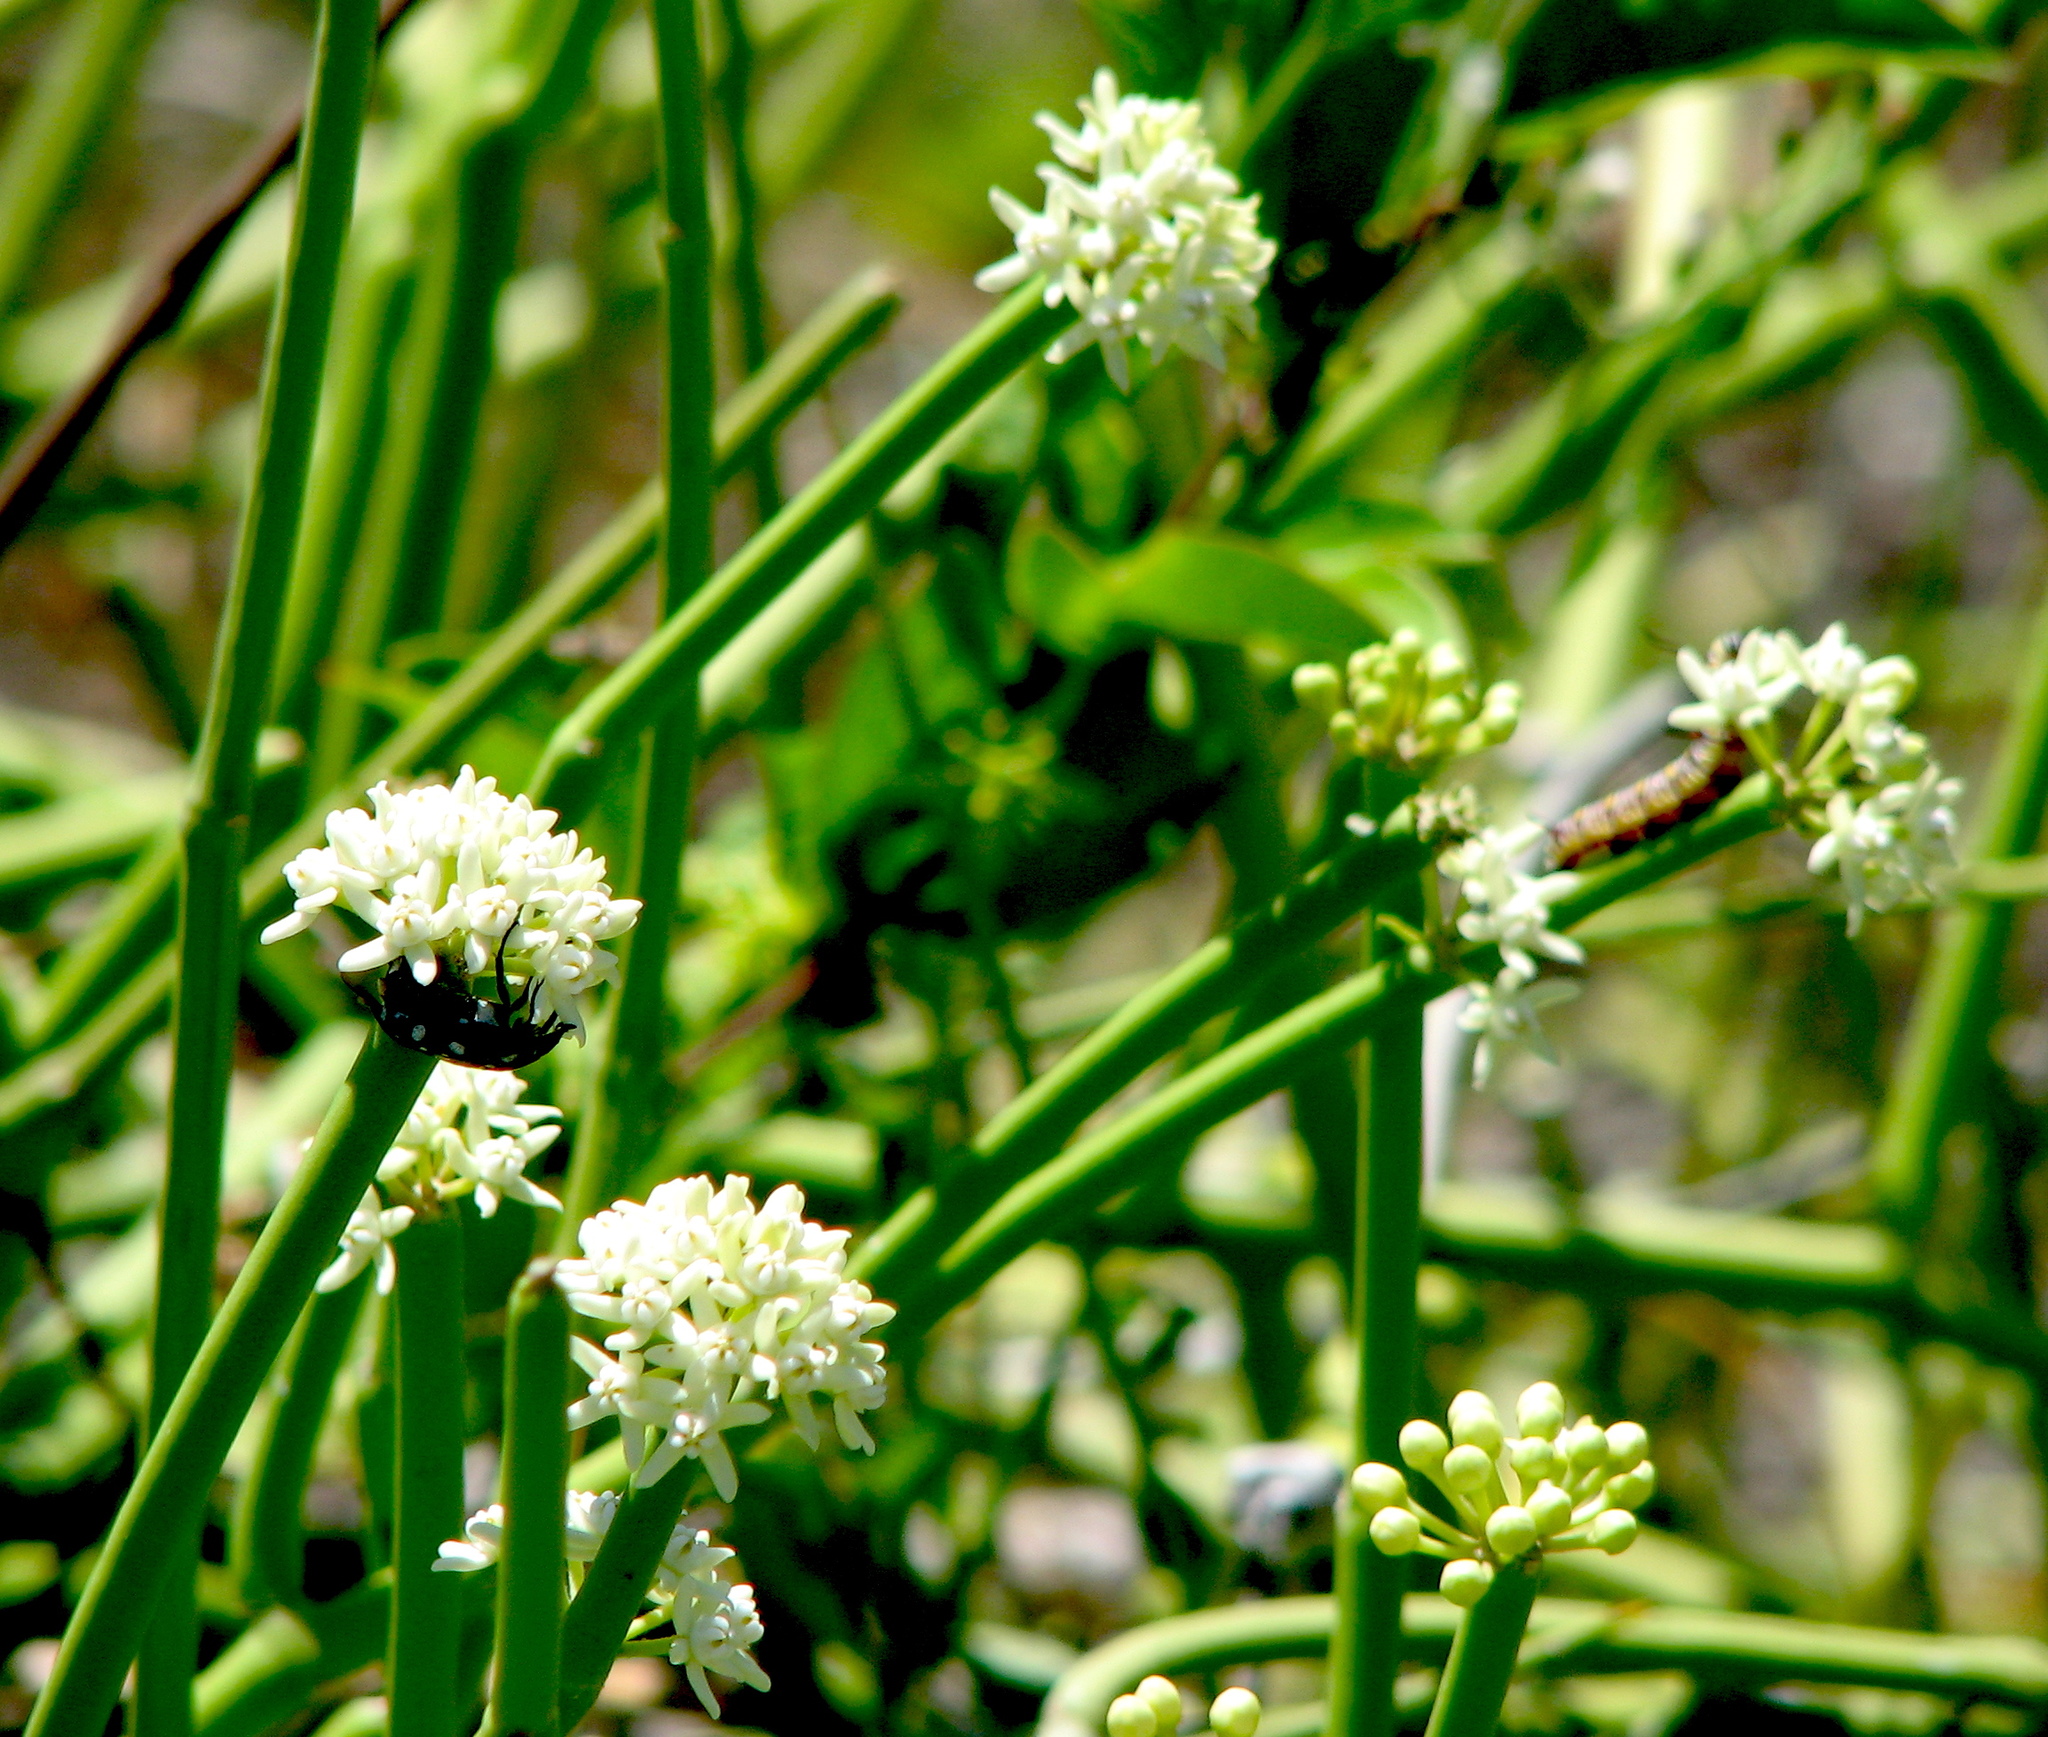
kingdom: Plantae
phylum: Tracheophyta
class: Magnoliopsida
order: Gentianales
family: Apocynaceae
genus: Cynanchum
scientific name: Cynanchum viminale
